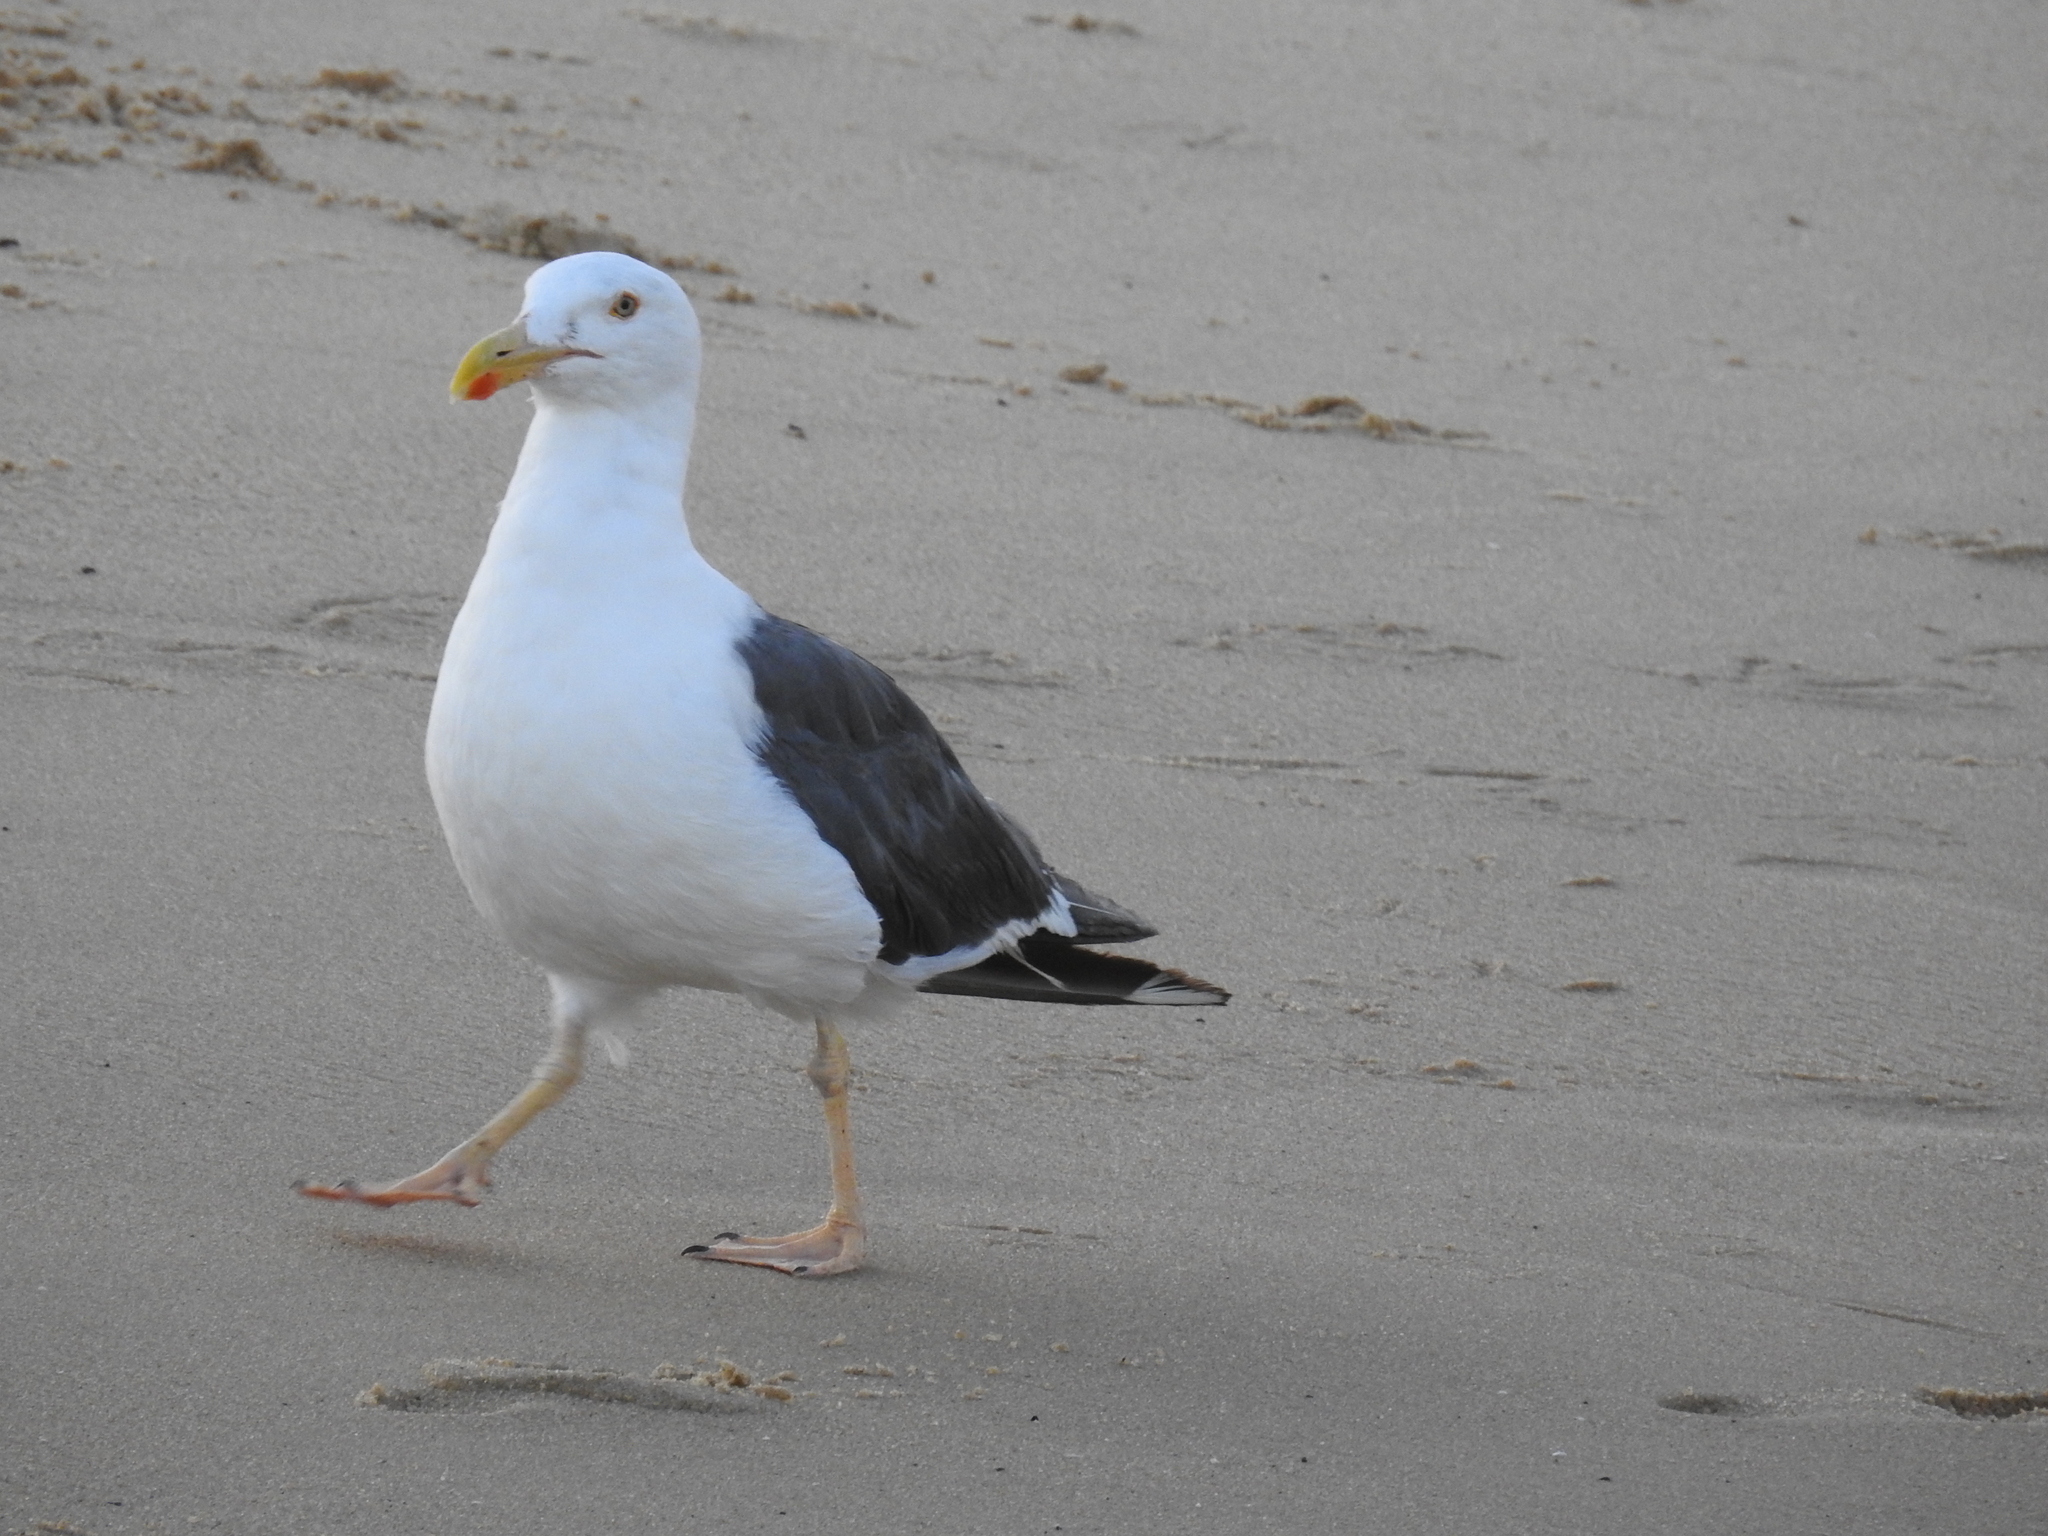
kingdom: Animalia
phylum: Chordata
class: Aves
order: Charadriiformes
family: Laridae
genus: Larus
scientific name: Larus livens
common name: Yellow-footed gull
